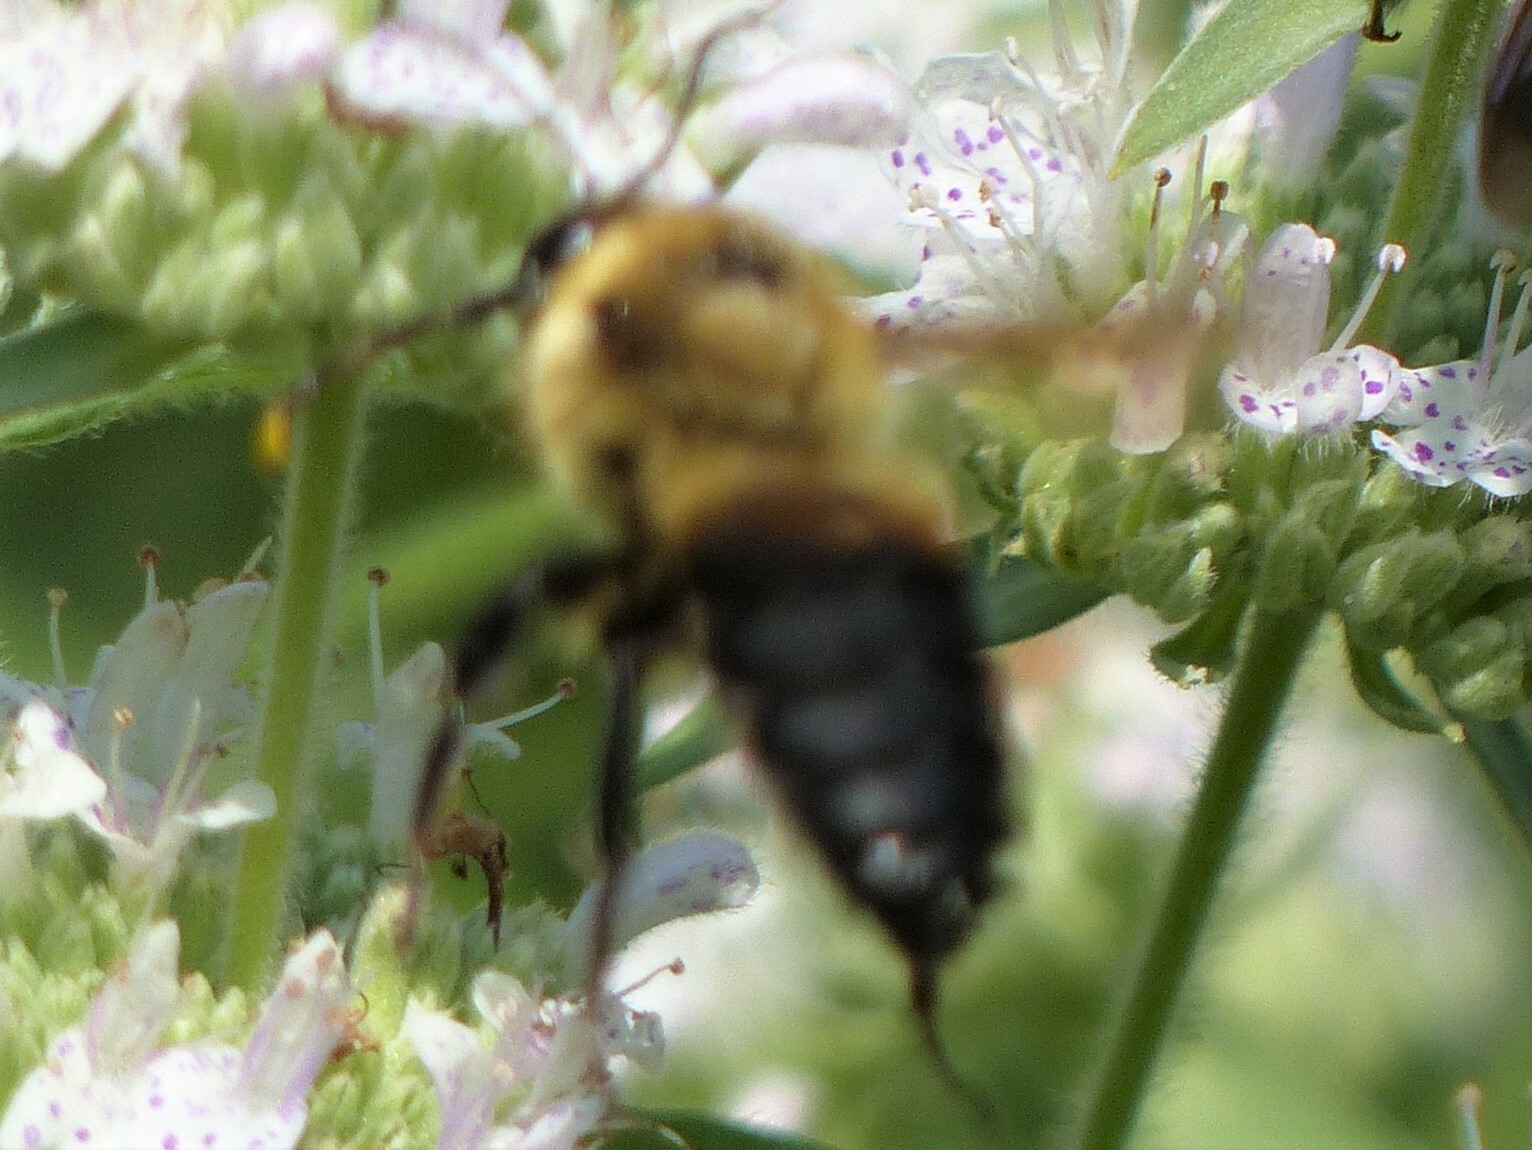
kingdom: Animalia
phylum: Arthropoda
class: Insecta
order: Hymenoptera
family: Apidae
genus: Bombus
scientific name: Bombus griseocollis
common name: Brown-belted bumble bee
